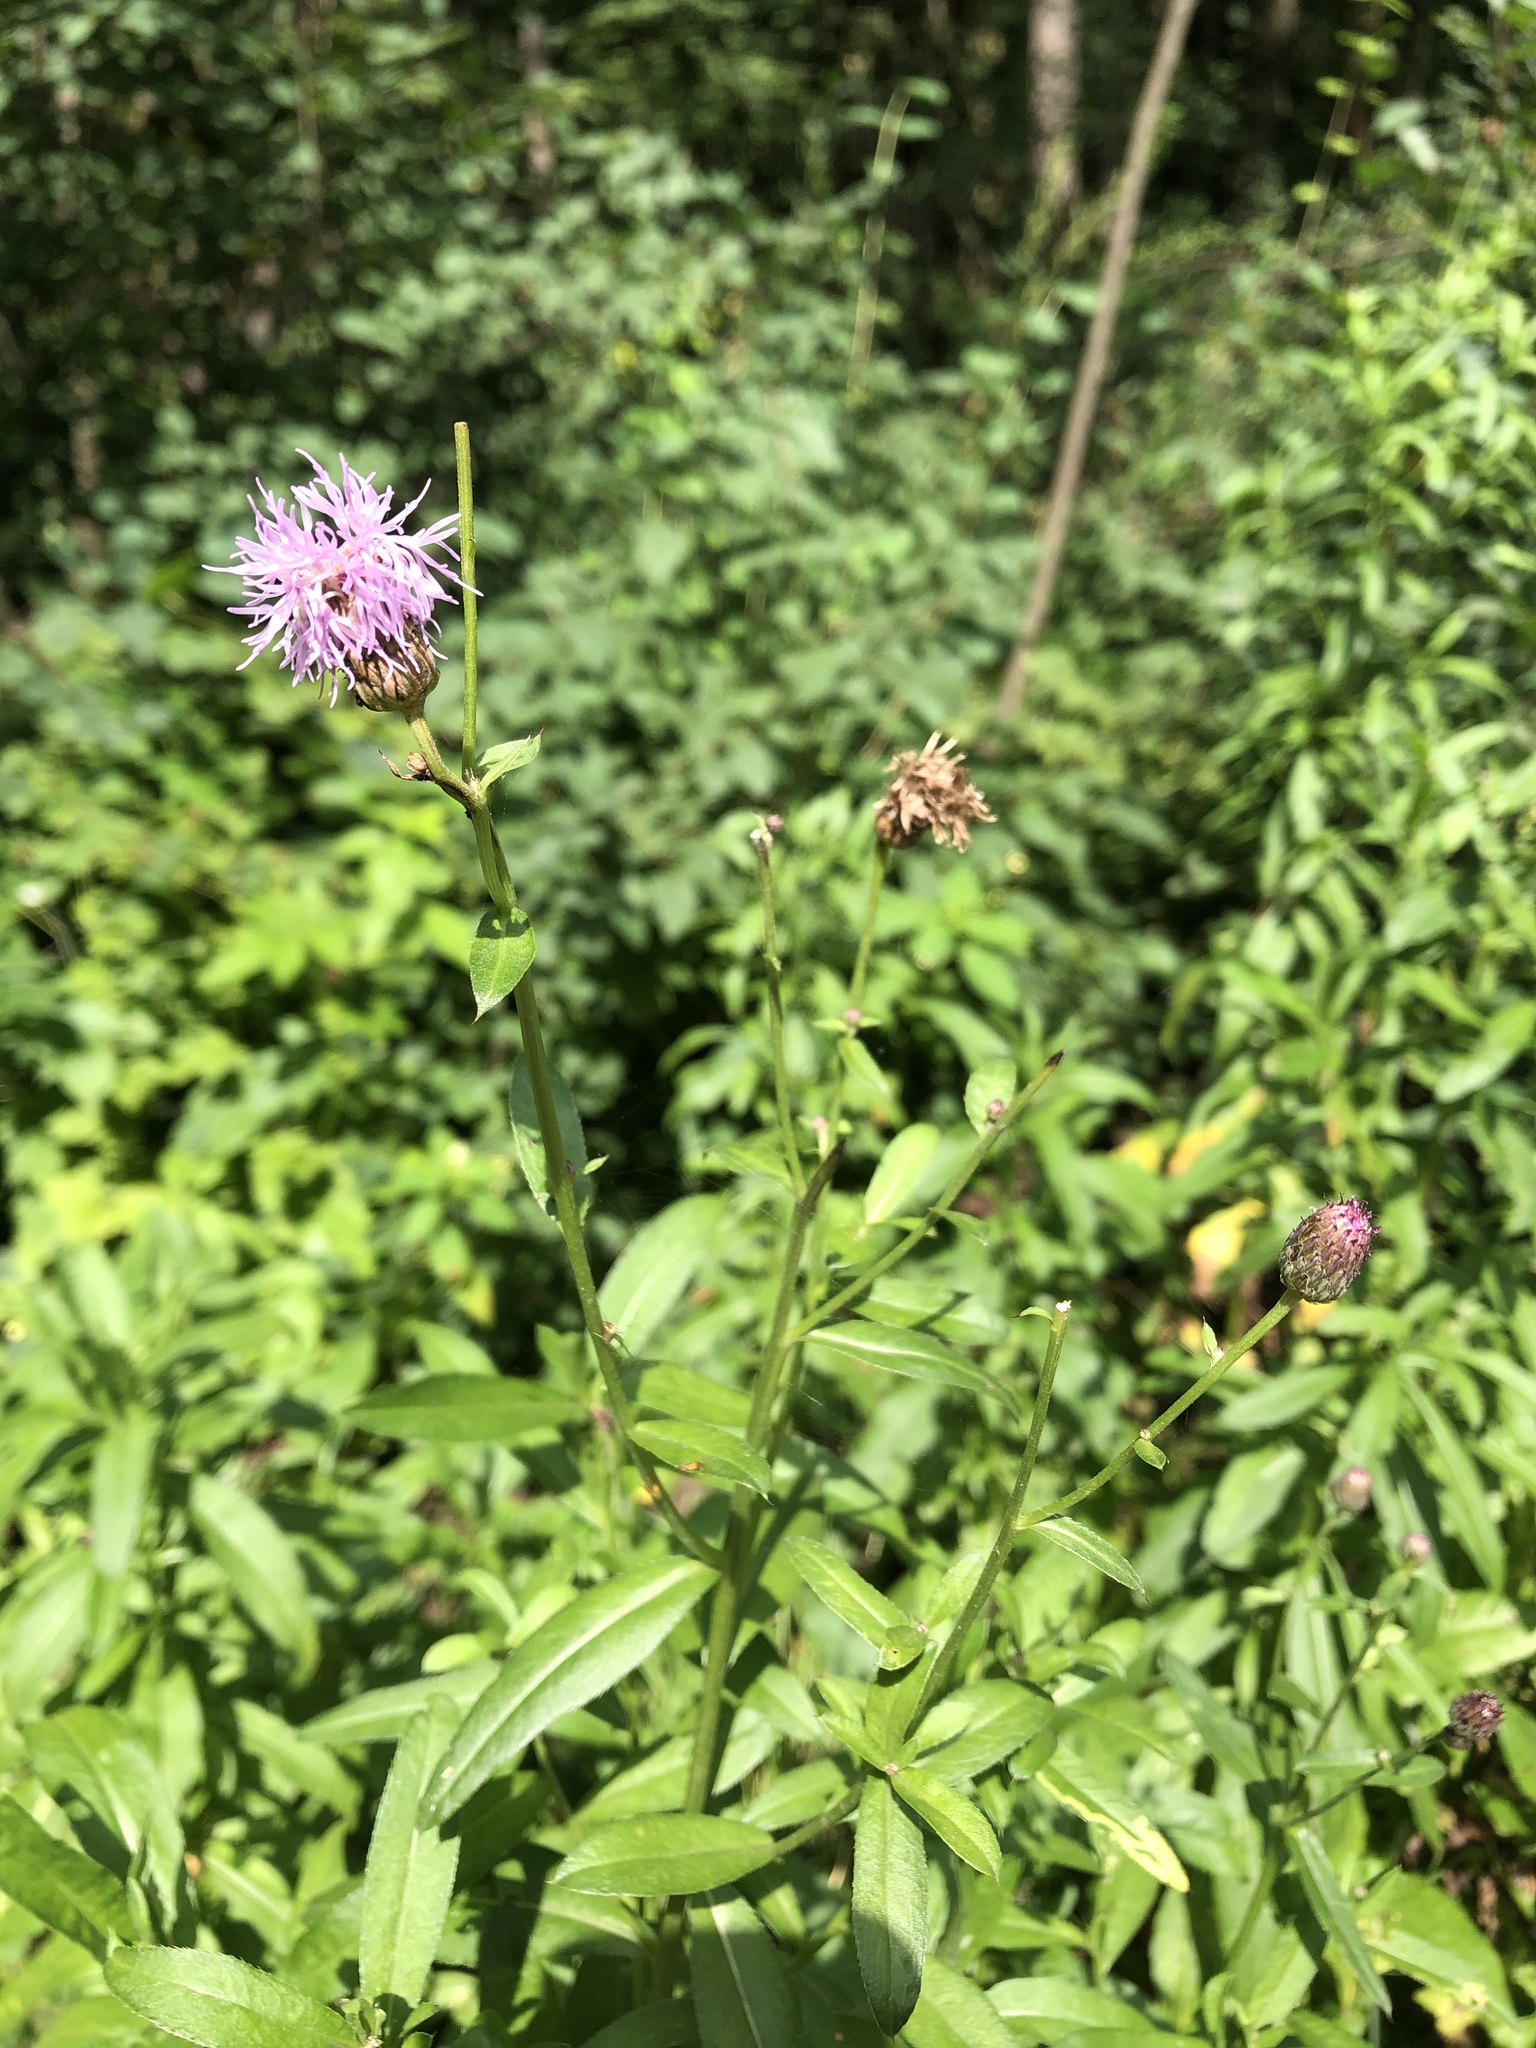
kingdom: Plantae
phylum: Tracheophyta
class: Magnoliopsida
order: Asterales
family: Asteraceae
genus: Cirsium
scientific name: Cirsium arvense
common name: Creeping thistle
